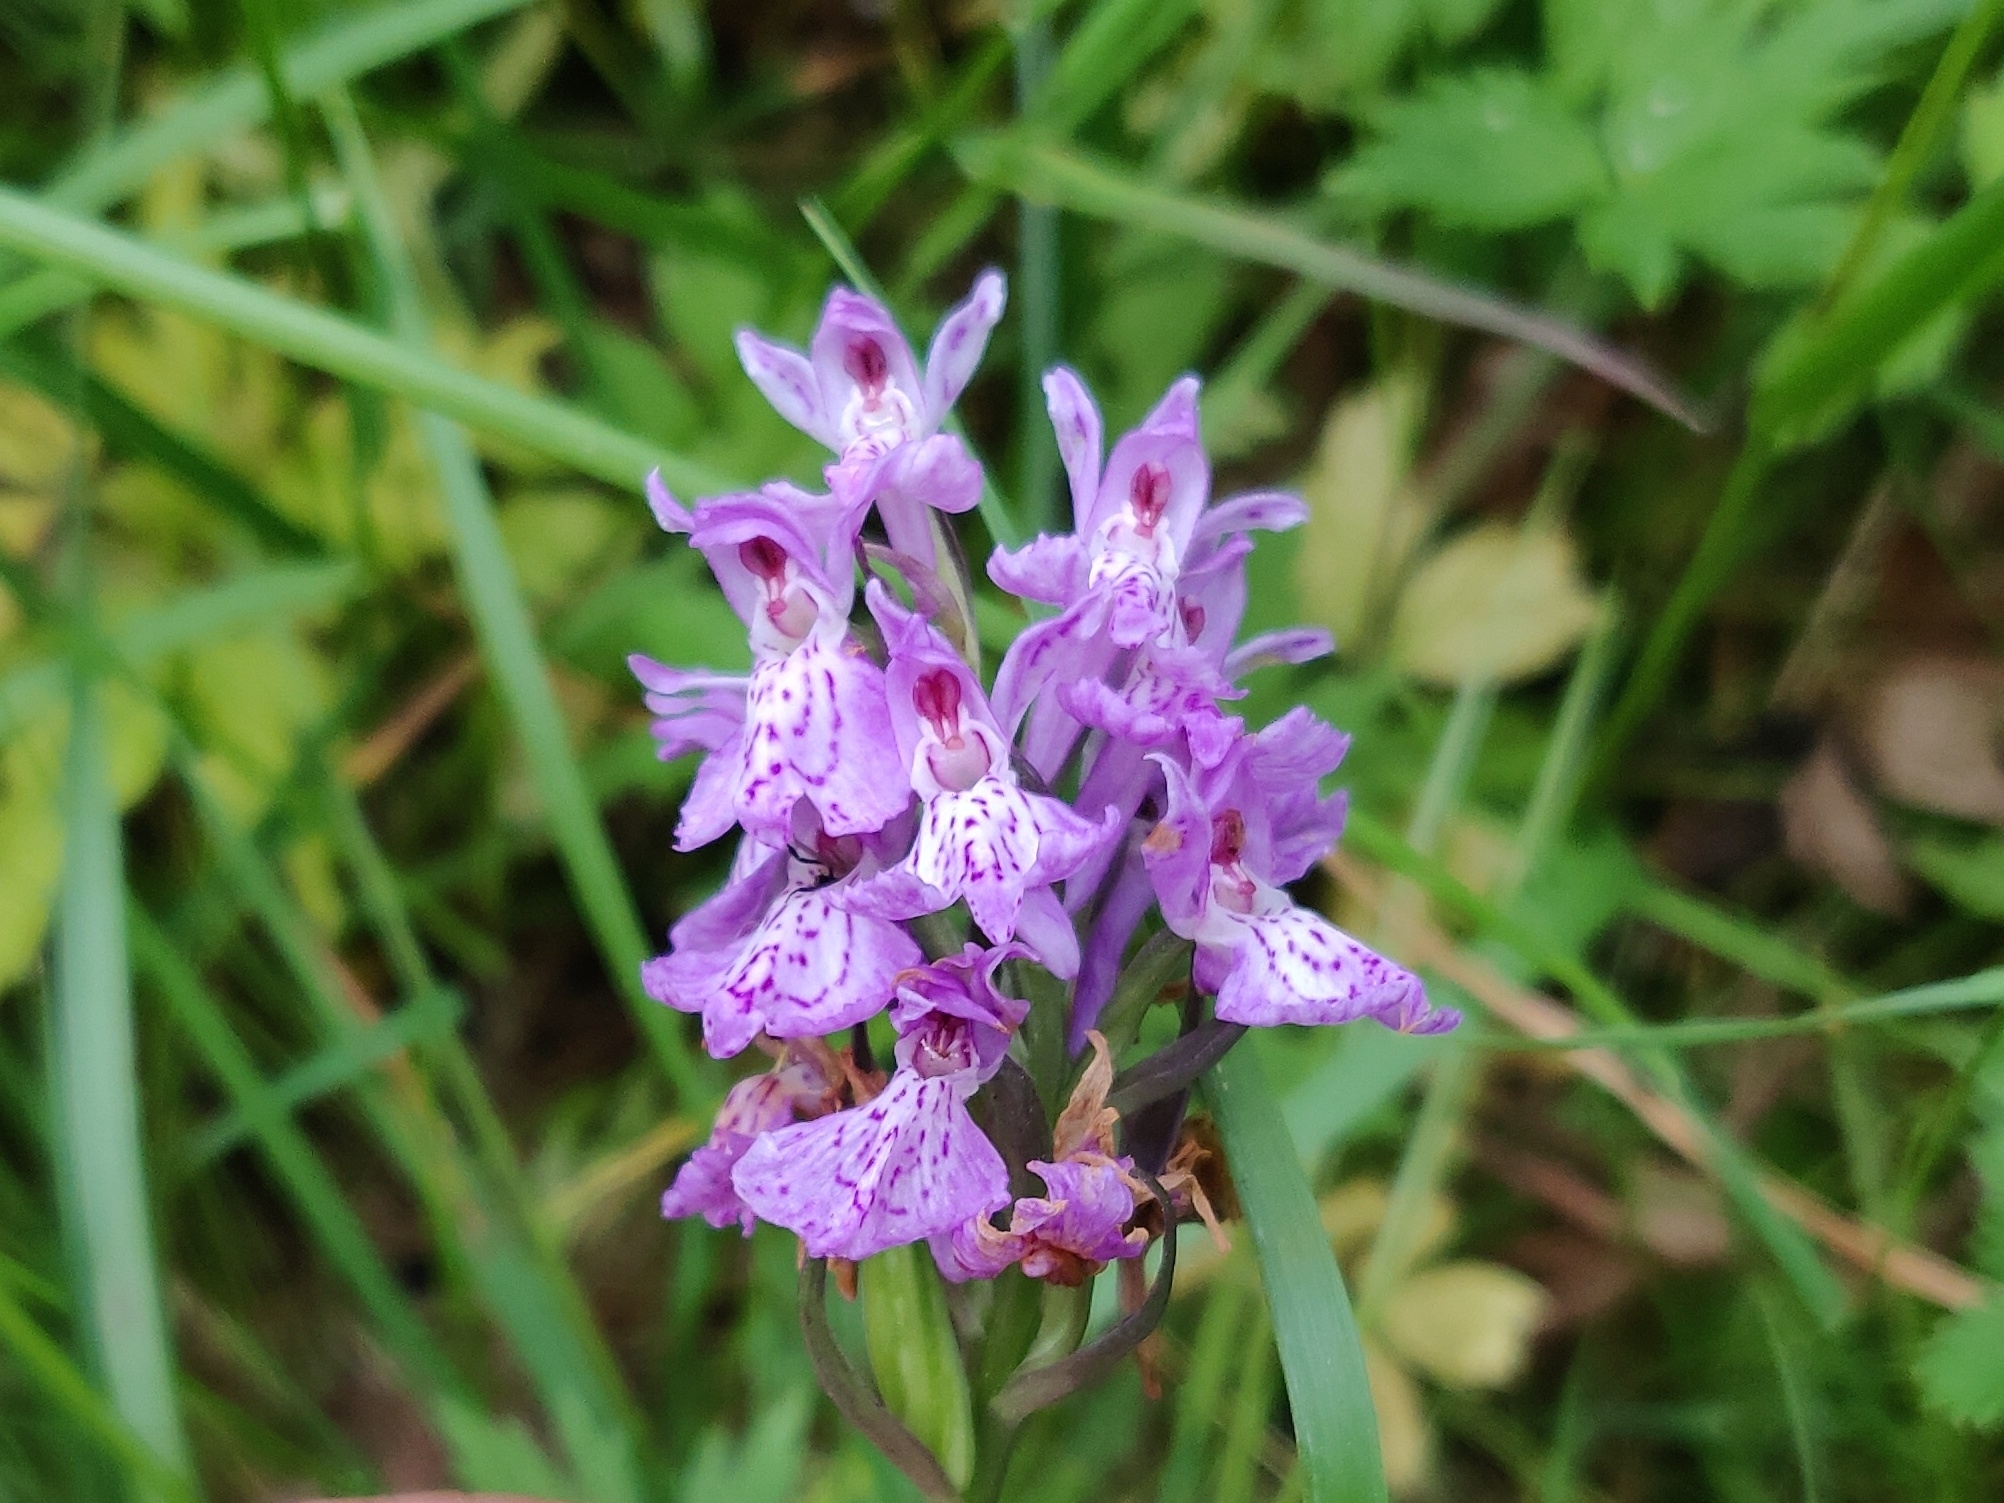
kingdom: Plantae
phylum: Tracheophyta
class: Liliopsida
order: Asparagales
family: Orchidaceae
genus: Dactylorhiza
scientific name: Dactylorhiza maculata
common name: Heath spotted-orchid
